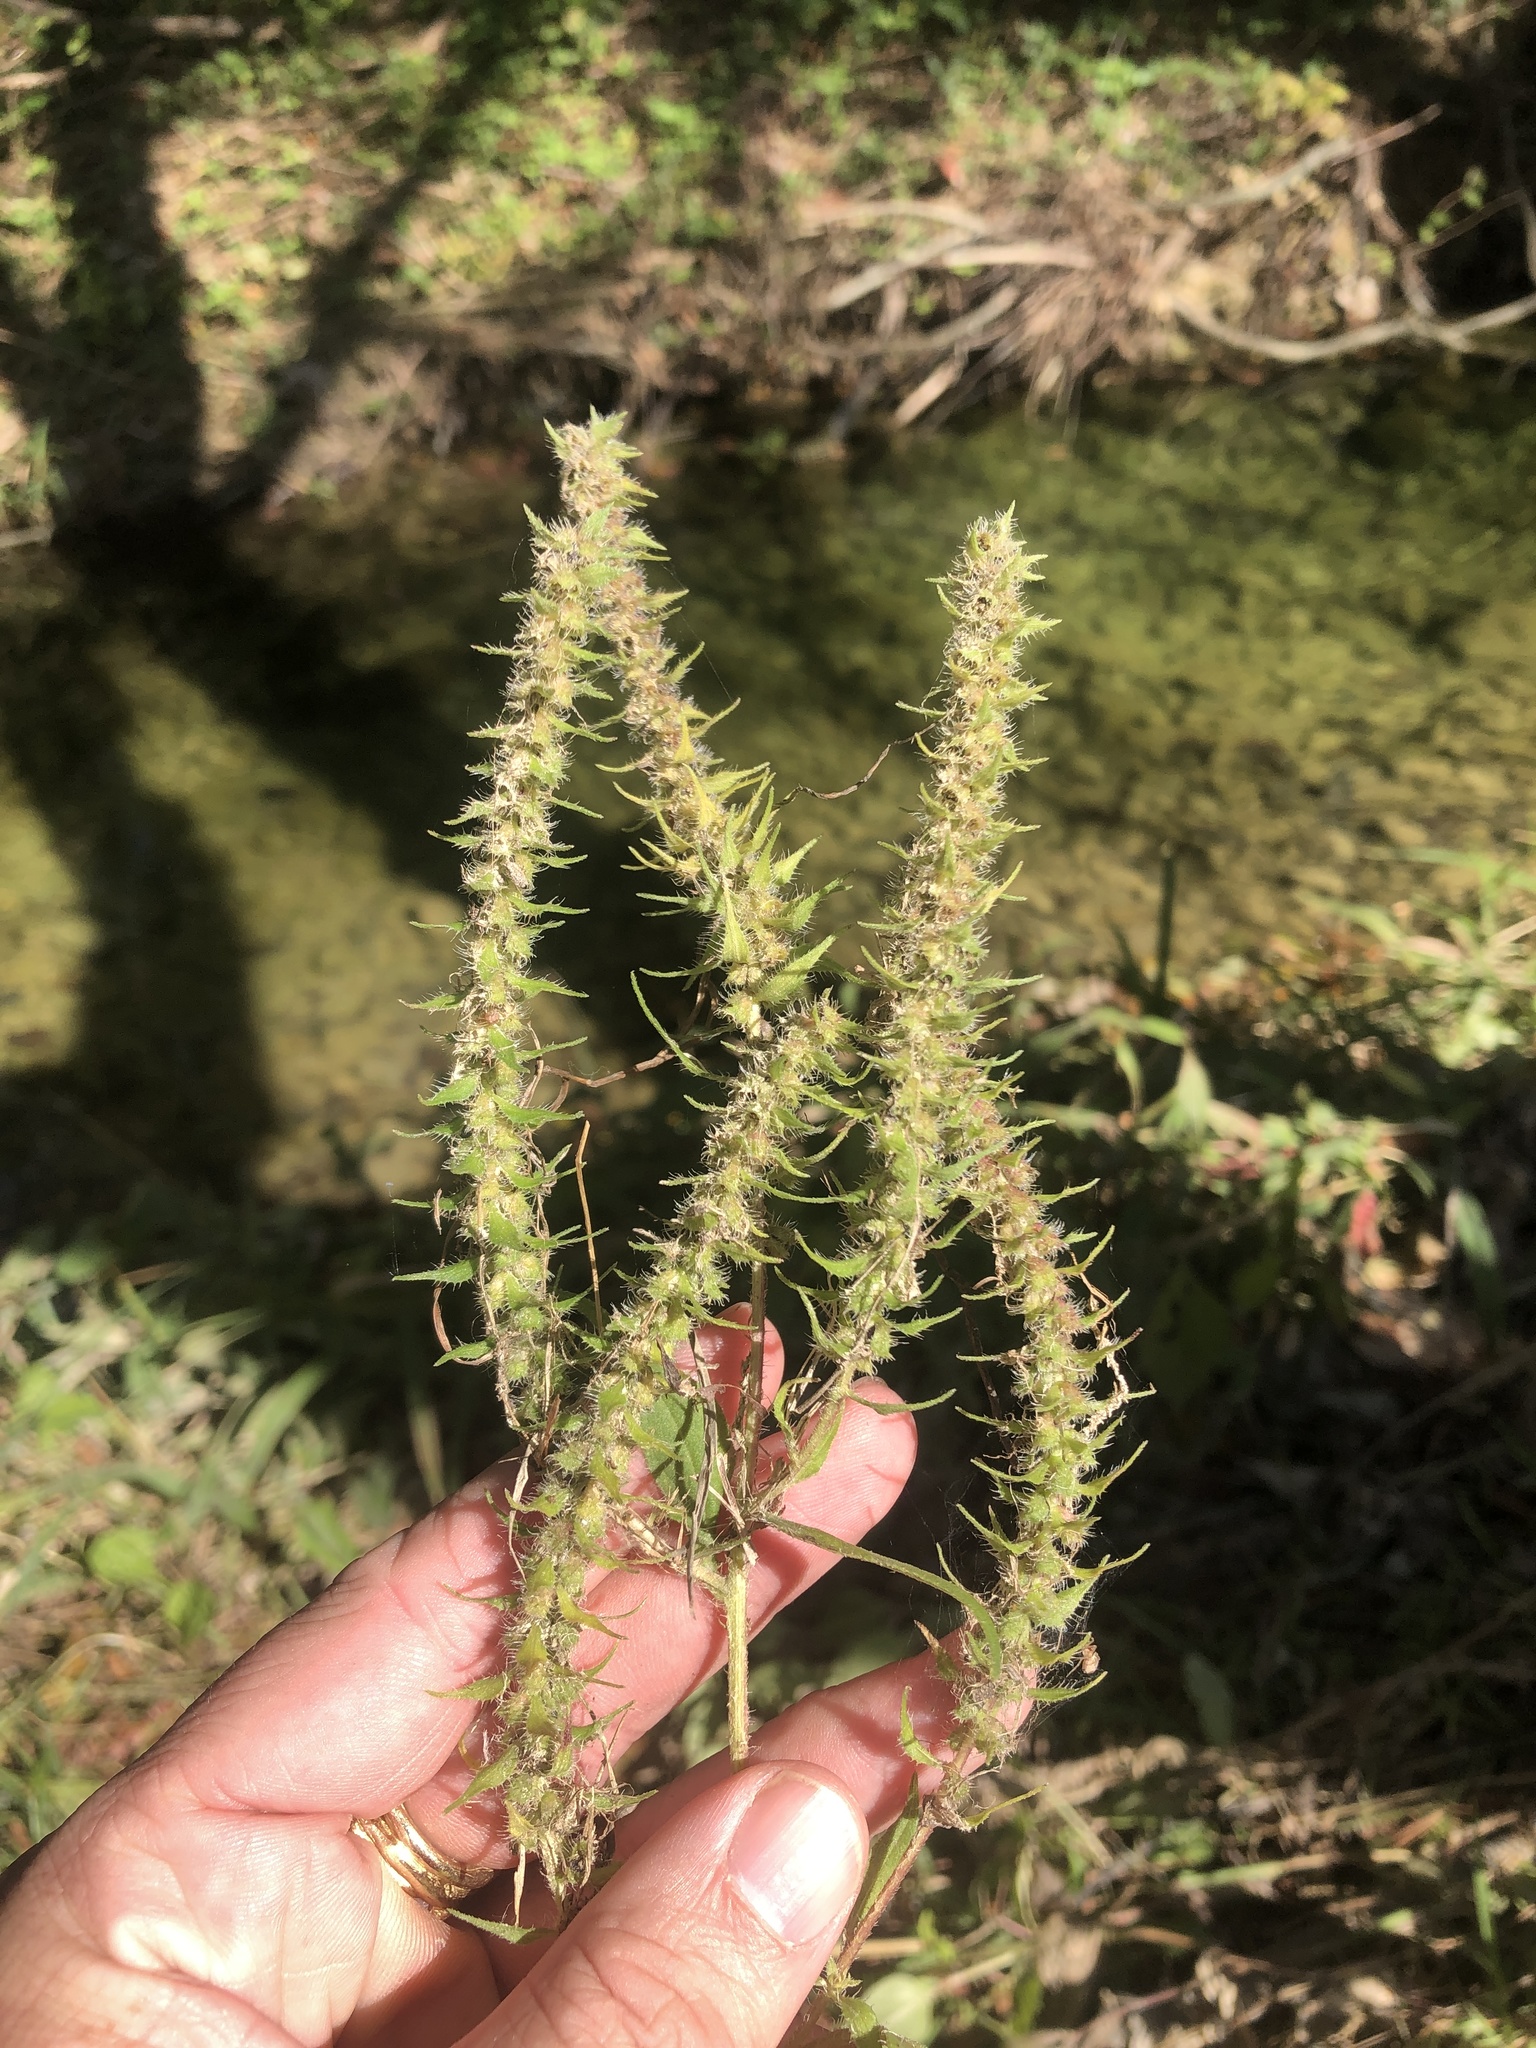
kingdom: Plantae
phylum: Tracheophyta
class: Magnoliopsida
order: Asterales
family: Asteraceae
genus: Iva
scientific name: Iva annua
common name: Marsh-elder
